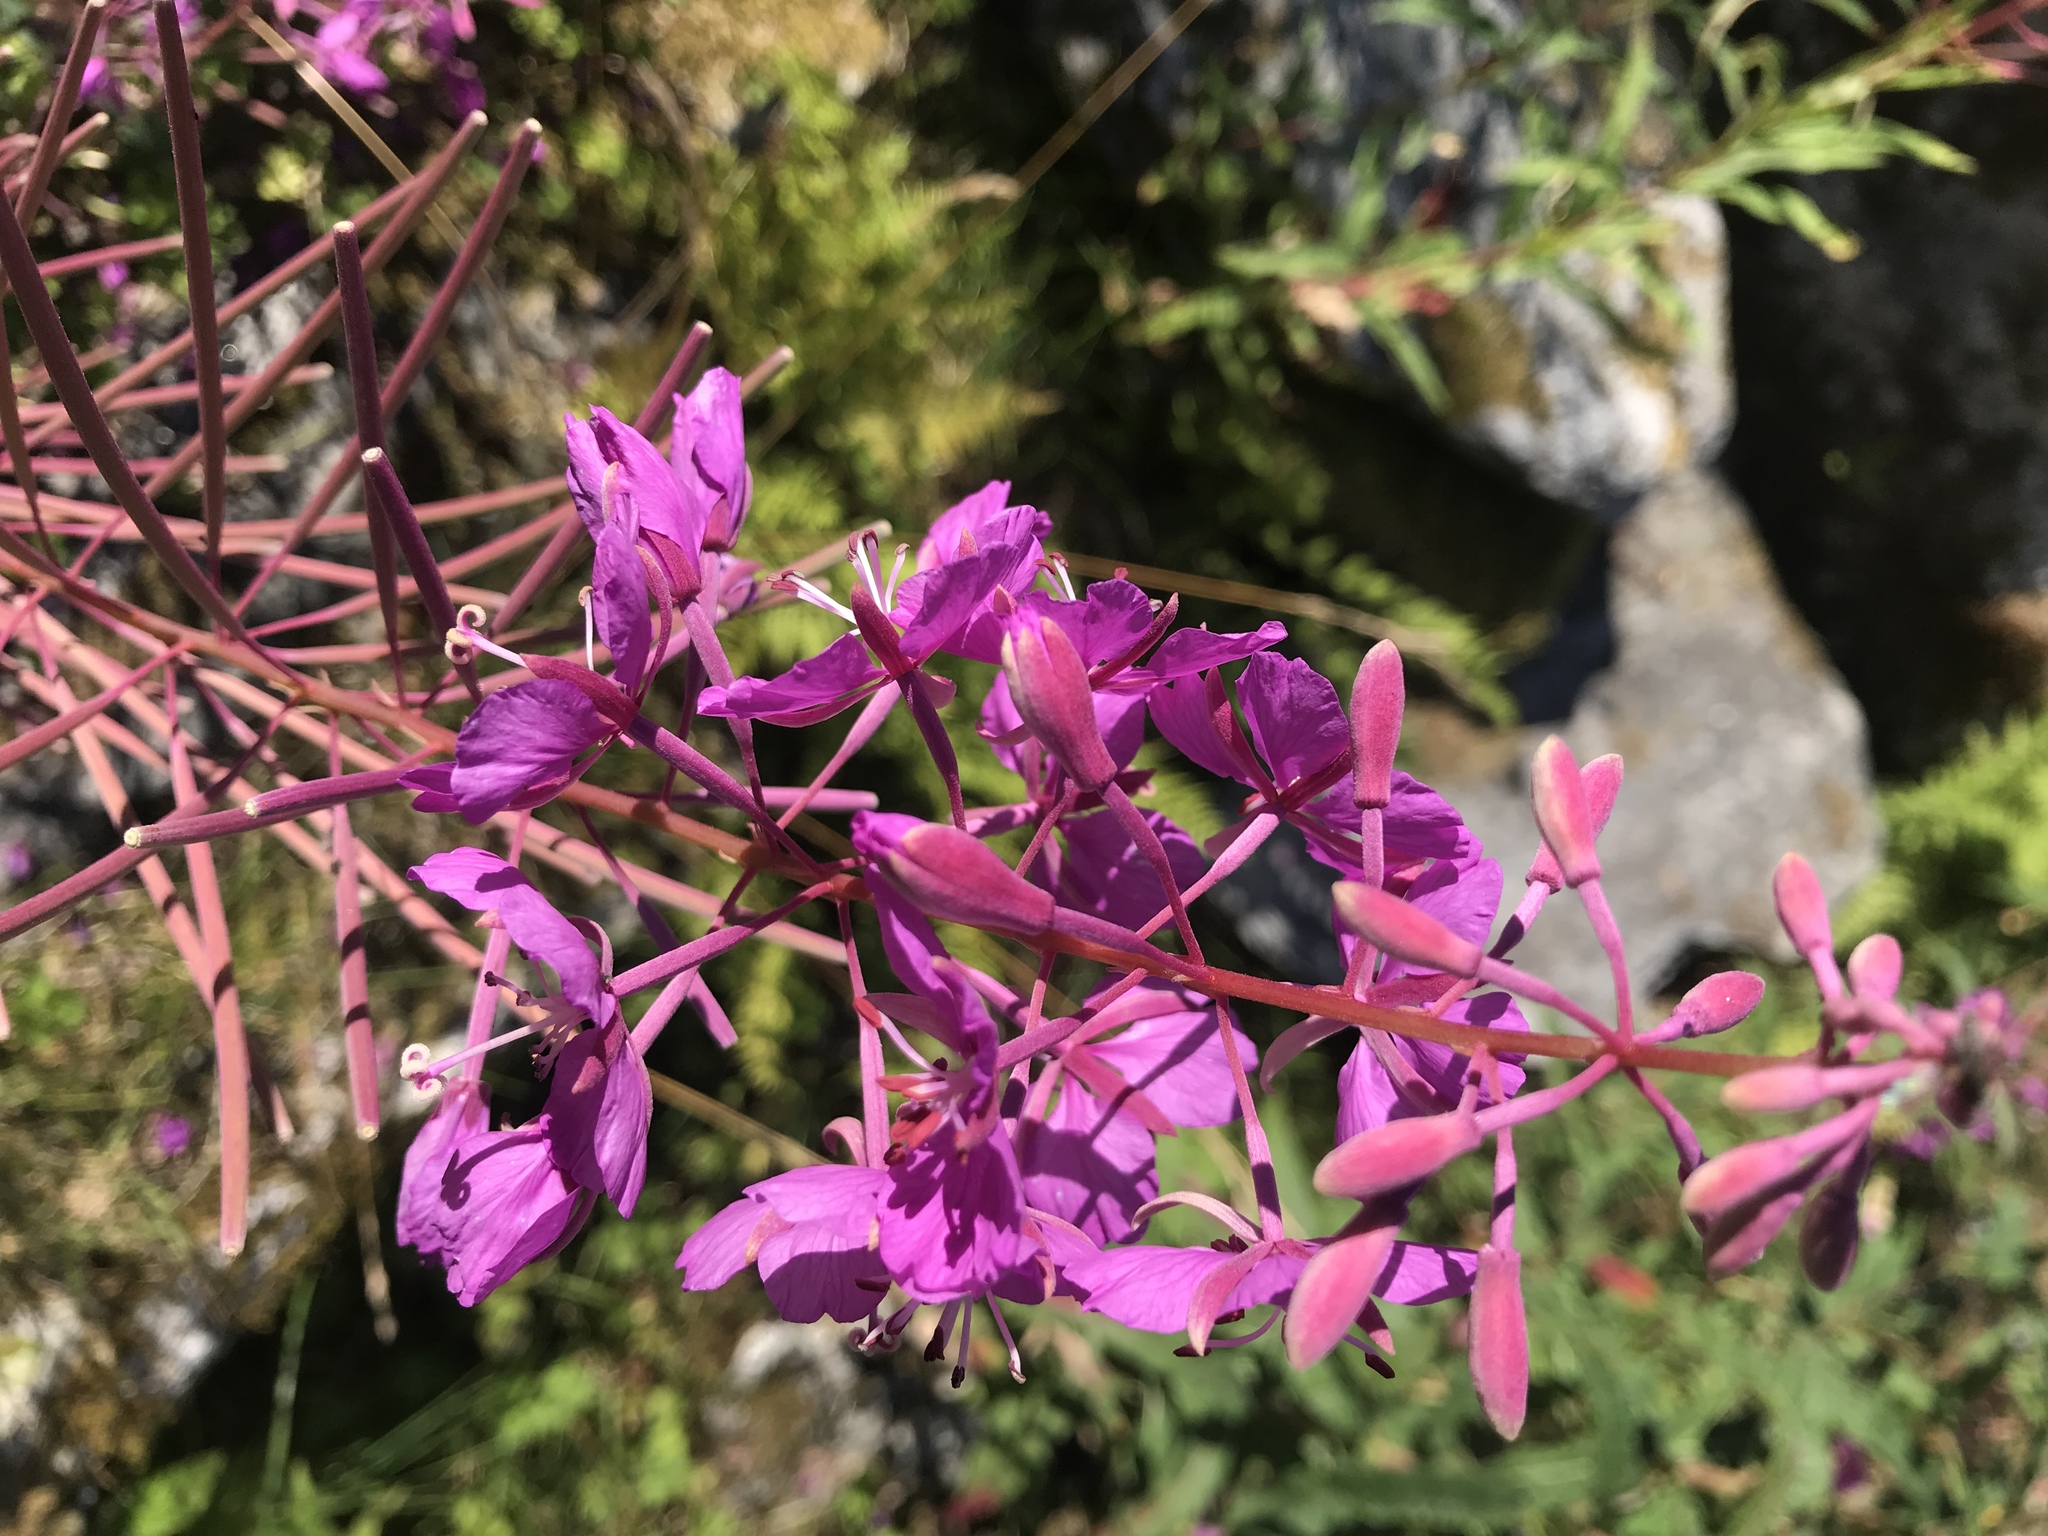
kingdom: Plantae
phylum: Tracheophyta
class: Magnoliopsida
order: Myrtales
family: Onagraceae
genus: Chamaenerion
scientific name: Chamaenerion angustifolium
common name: Fireweed
